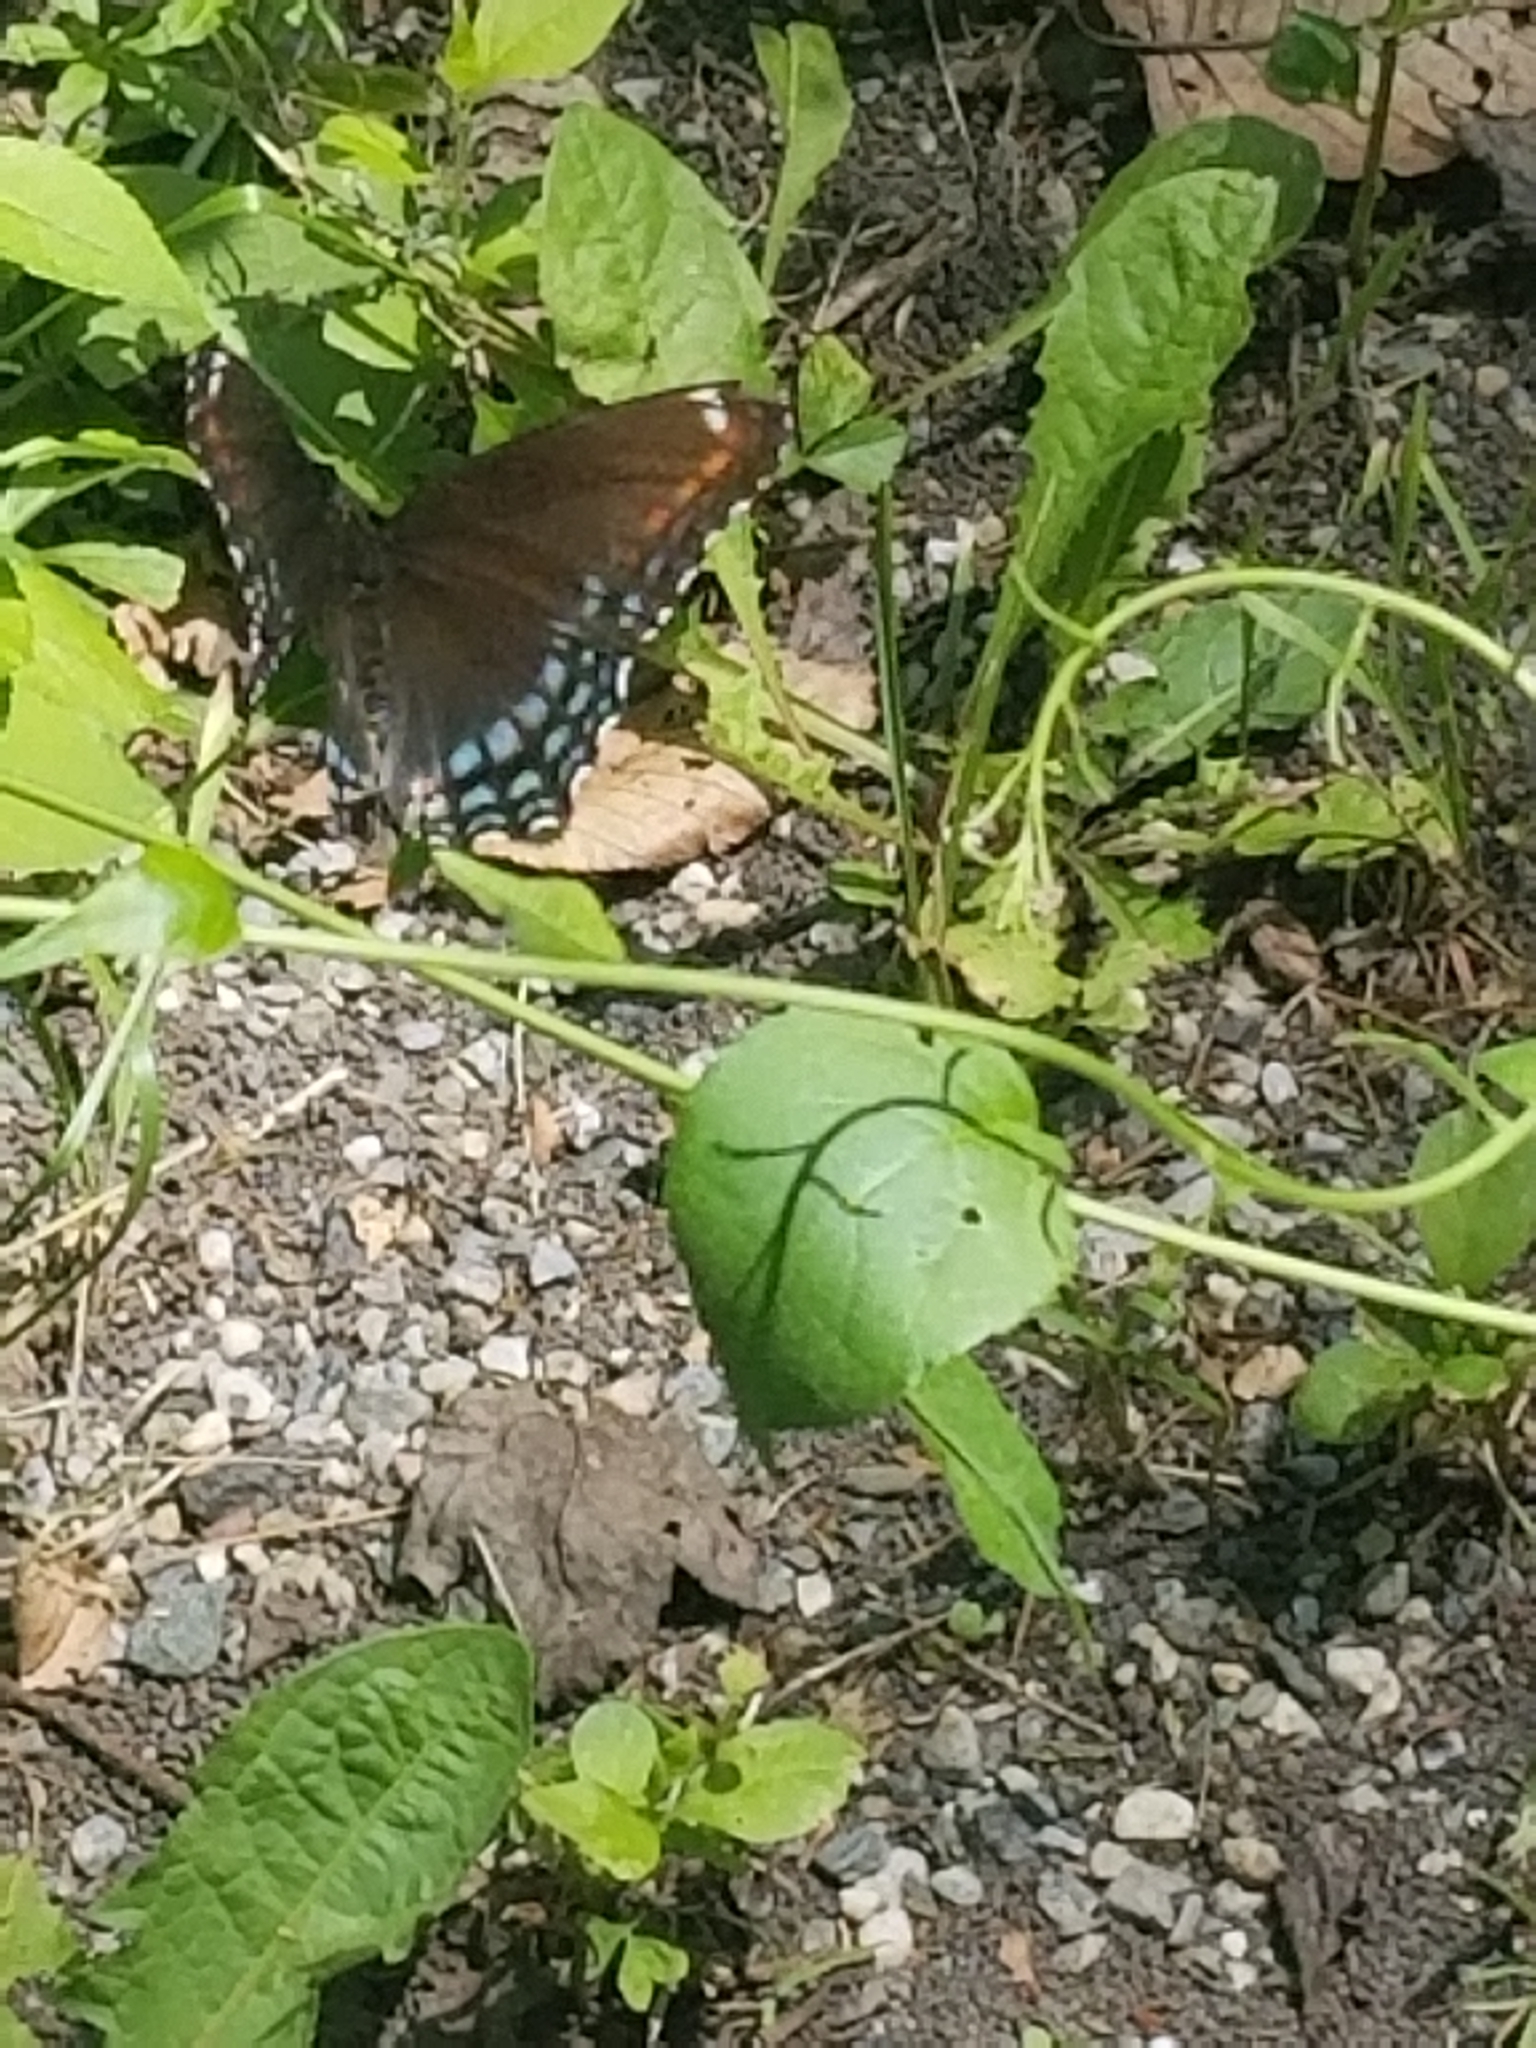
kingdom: Animalia
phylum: Arthropoda
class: Insecta
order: Lepidoptera
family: Nymphalidae
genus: Limenitis
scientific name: Limenitis astyanax
